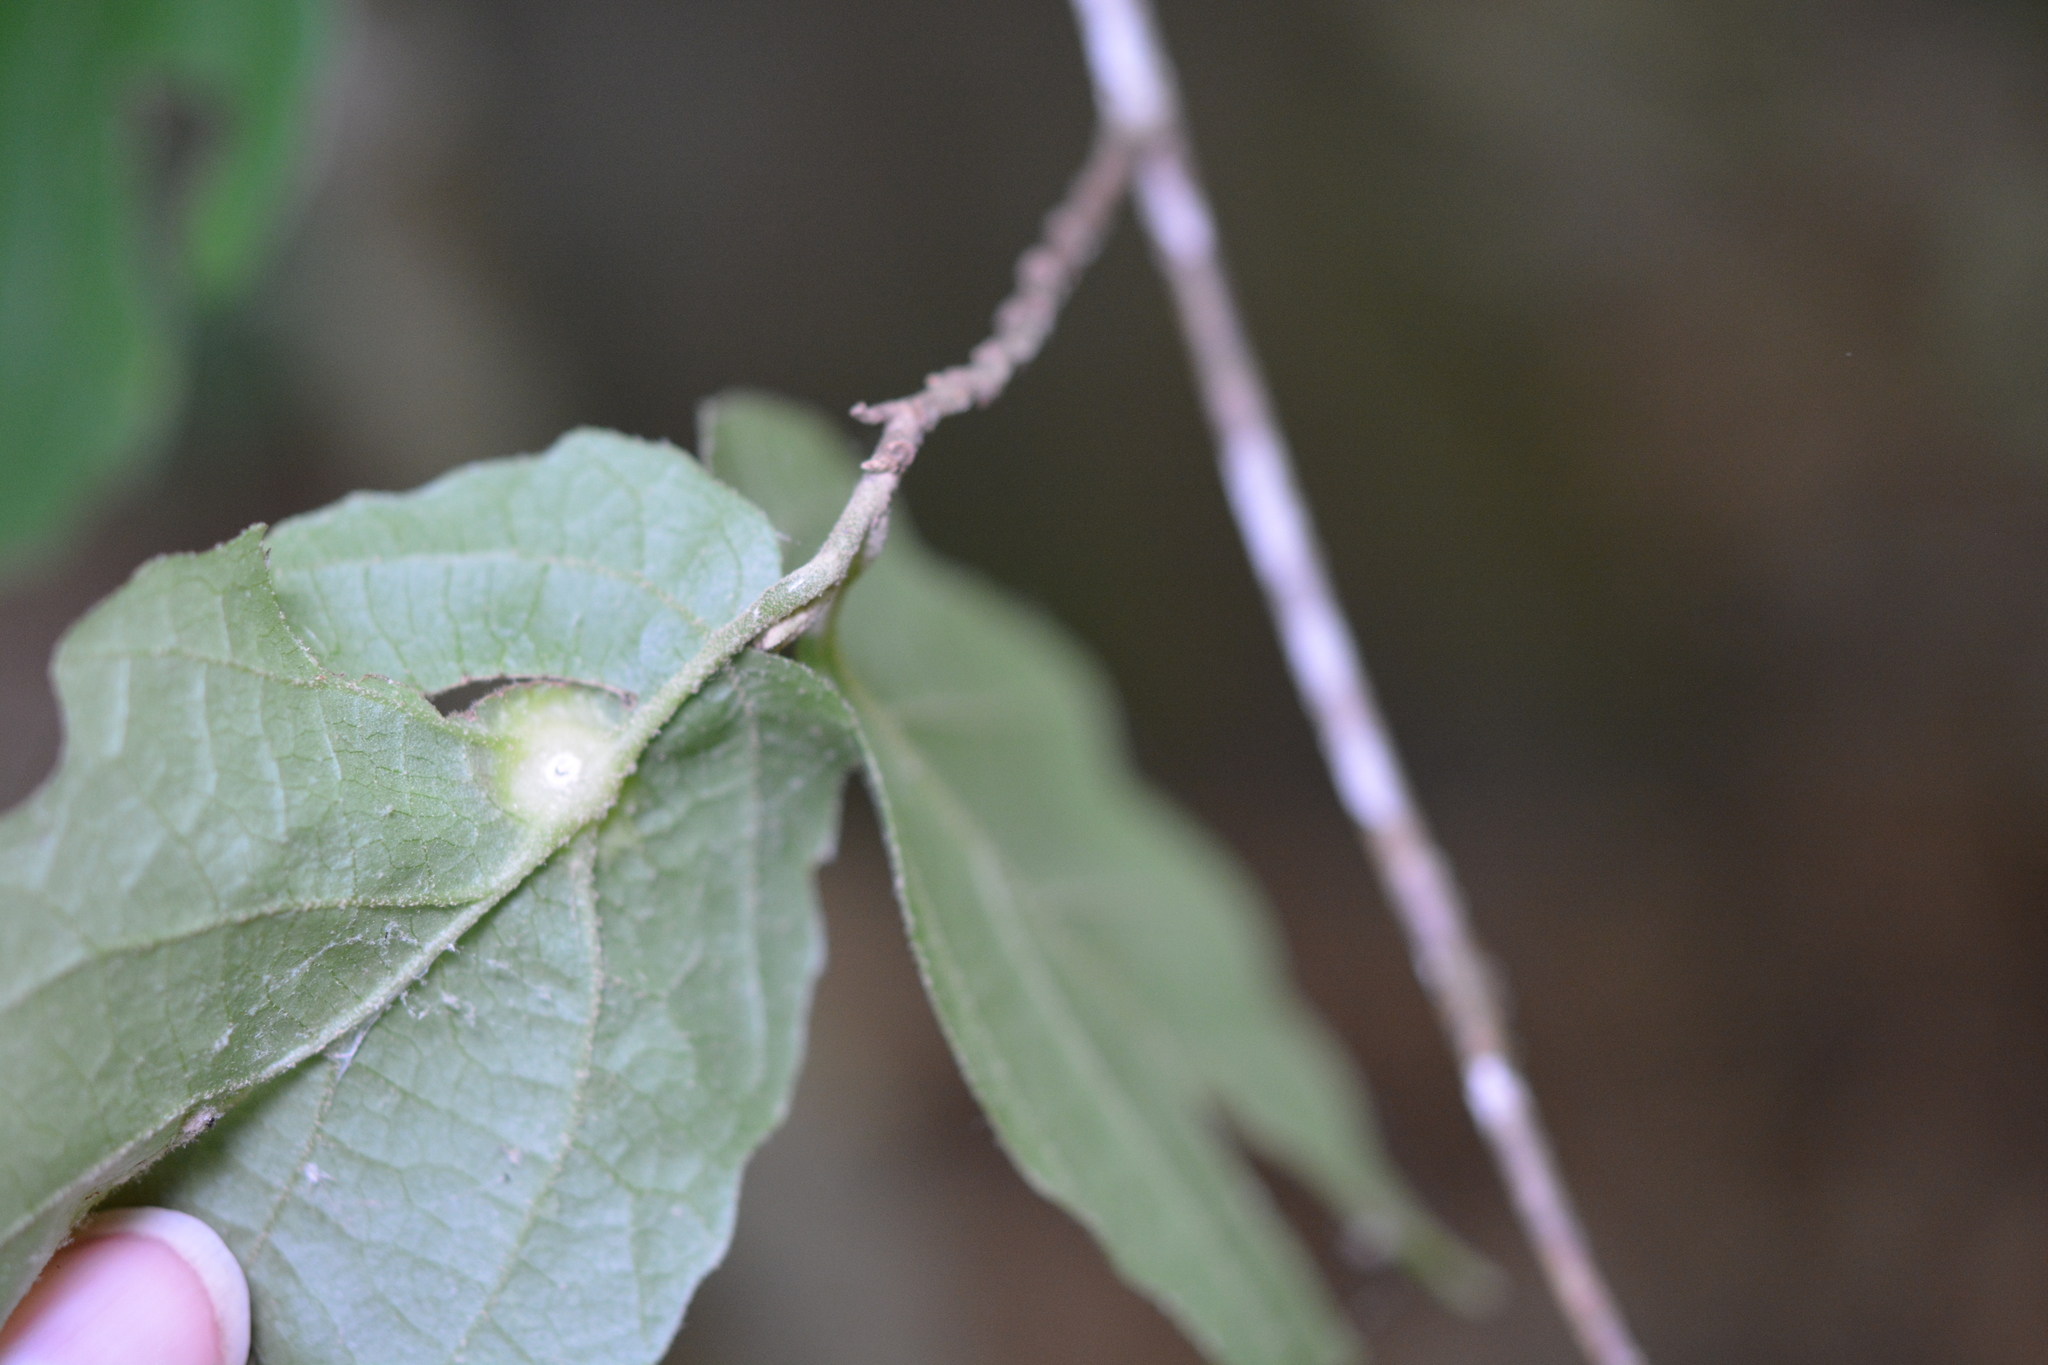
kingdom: Animalia
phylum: Arthropoda
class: Insecta
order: Hemiptera
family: Aphididae
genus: Hormaphis
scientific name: Hormaphis hamamelidis
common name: Witch-hazel cone gall aphid
